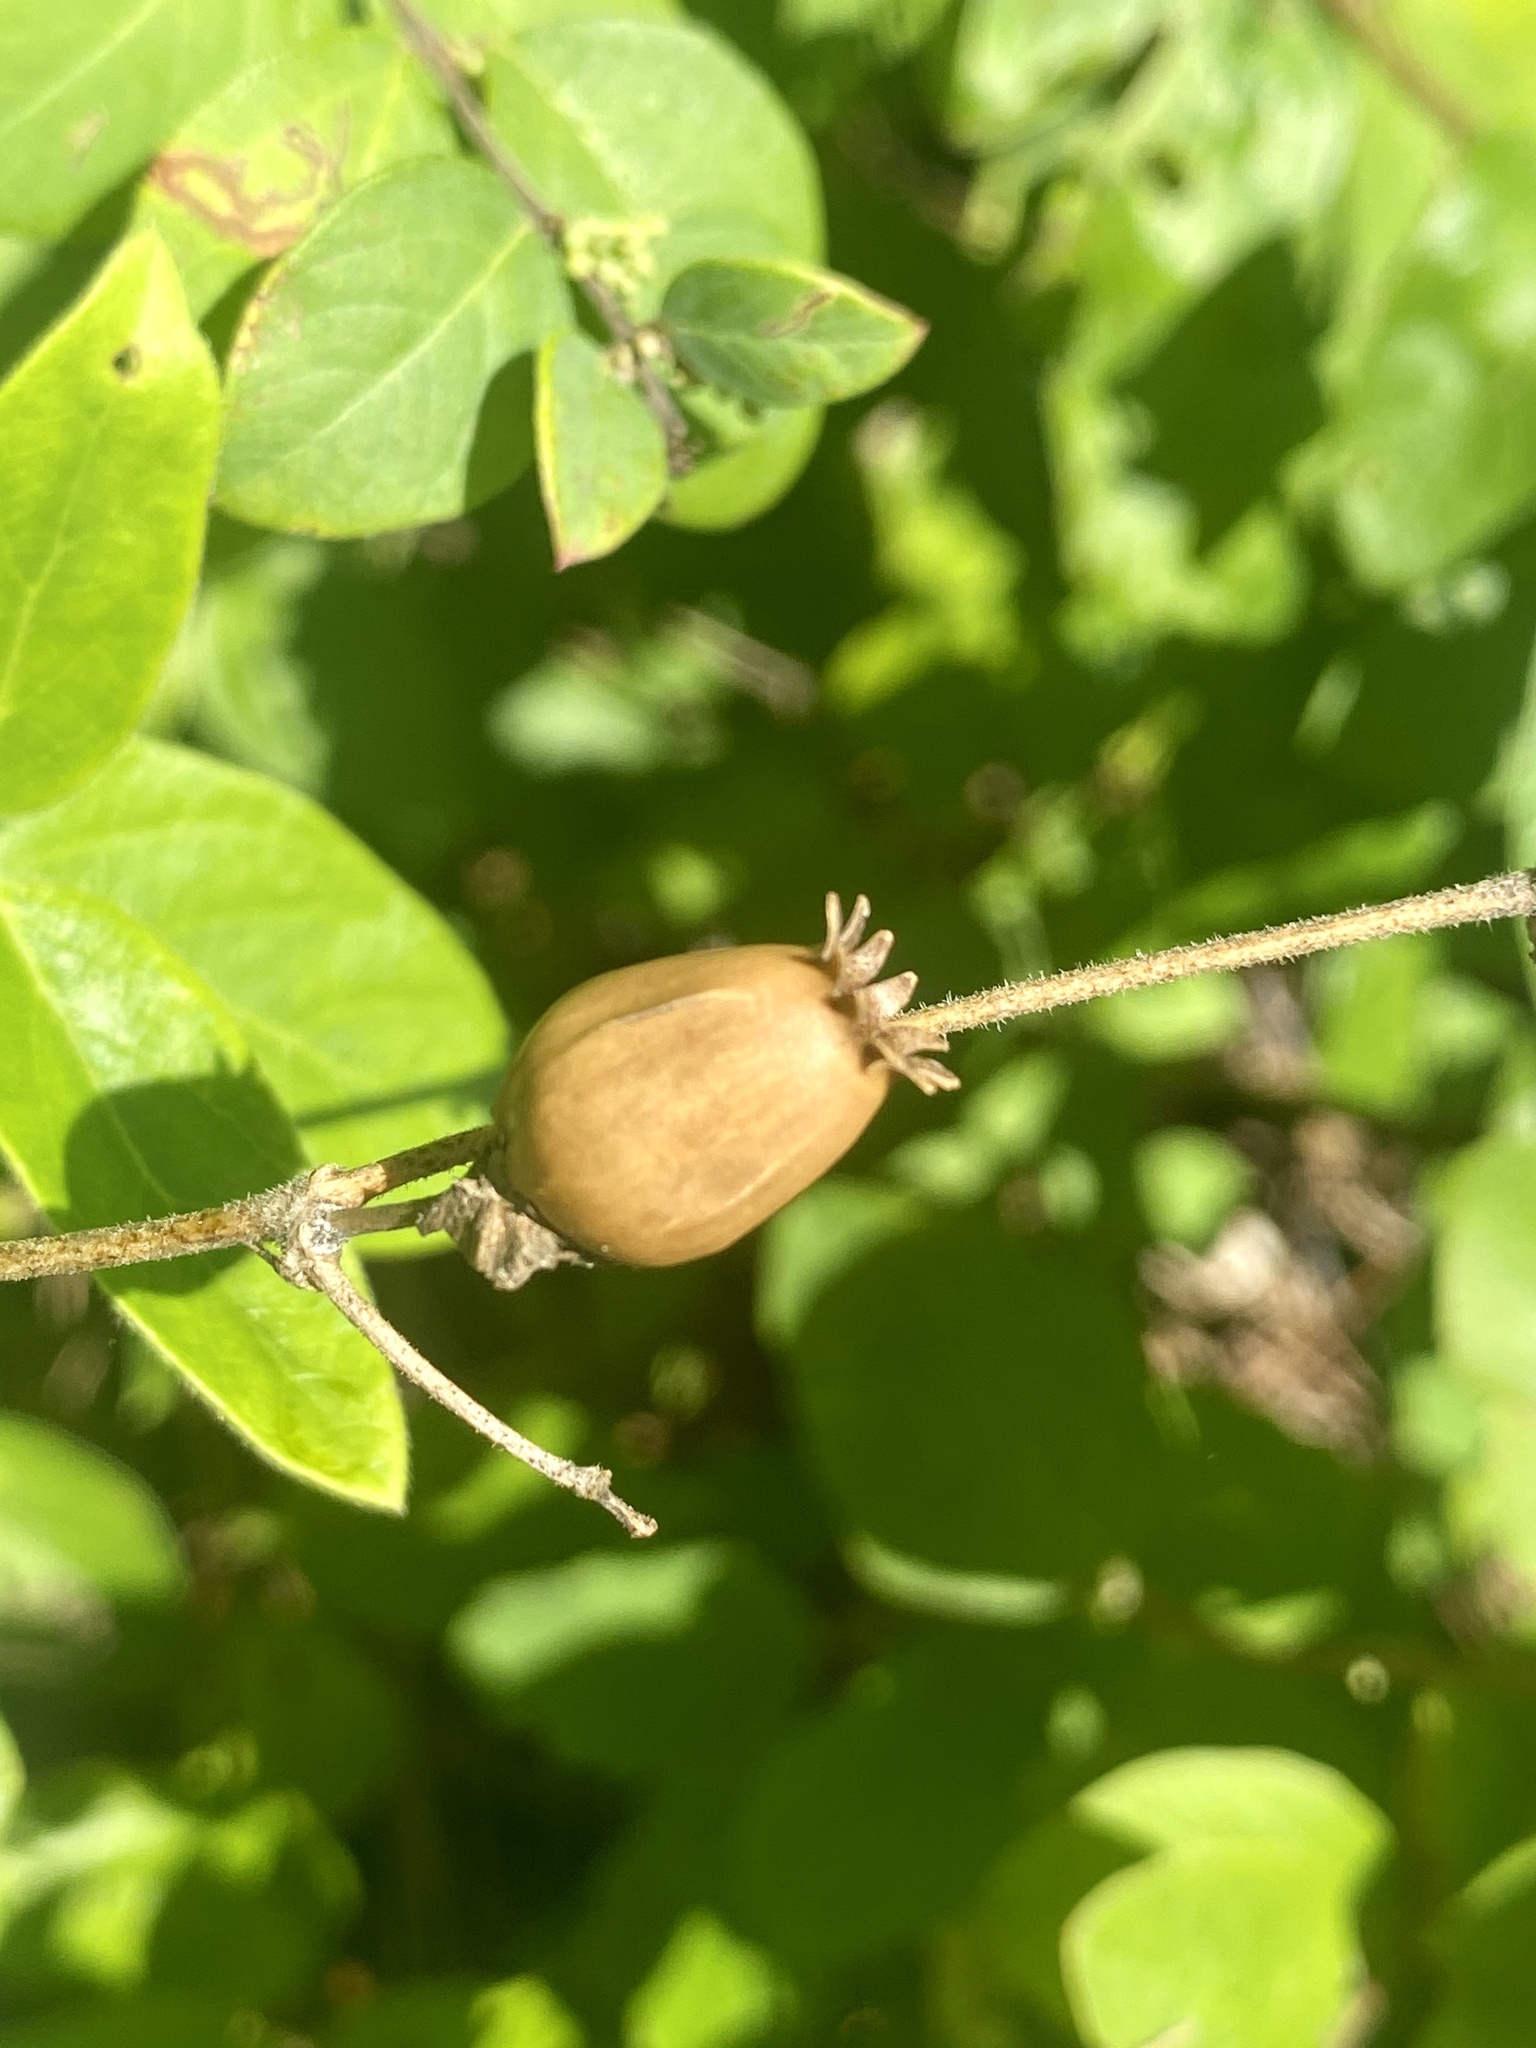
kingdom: Plantae
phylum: Tracheophyta
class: Magnoliopsida
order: Caryophyllales
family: Caryophyllaceae
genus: Silene
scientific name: Silene latifolia
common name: White campion
